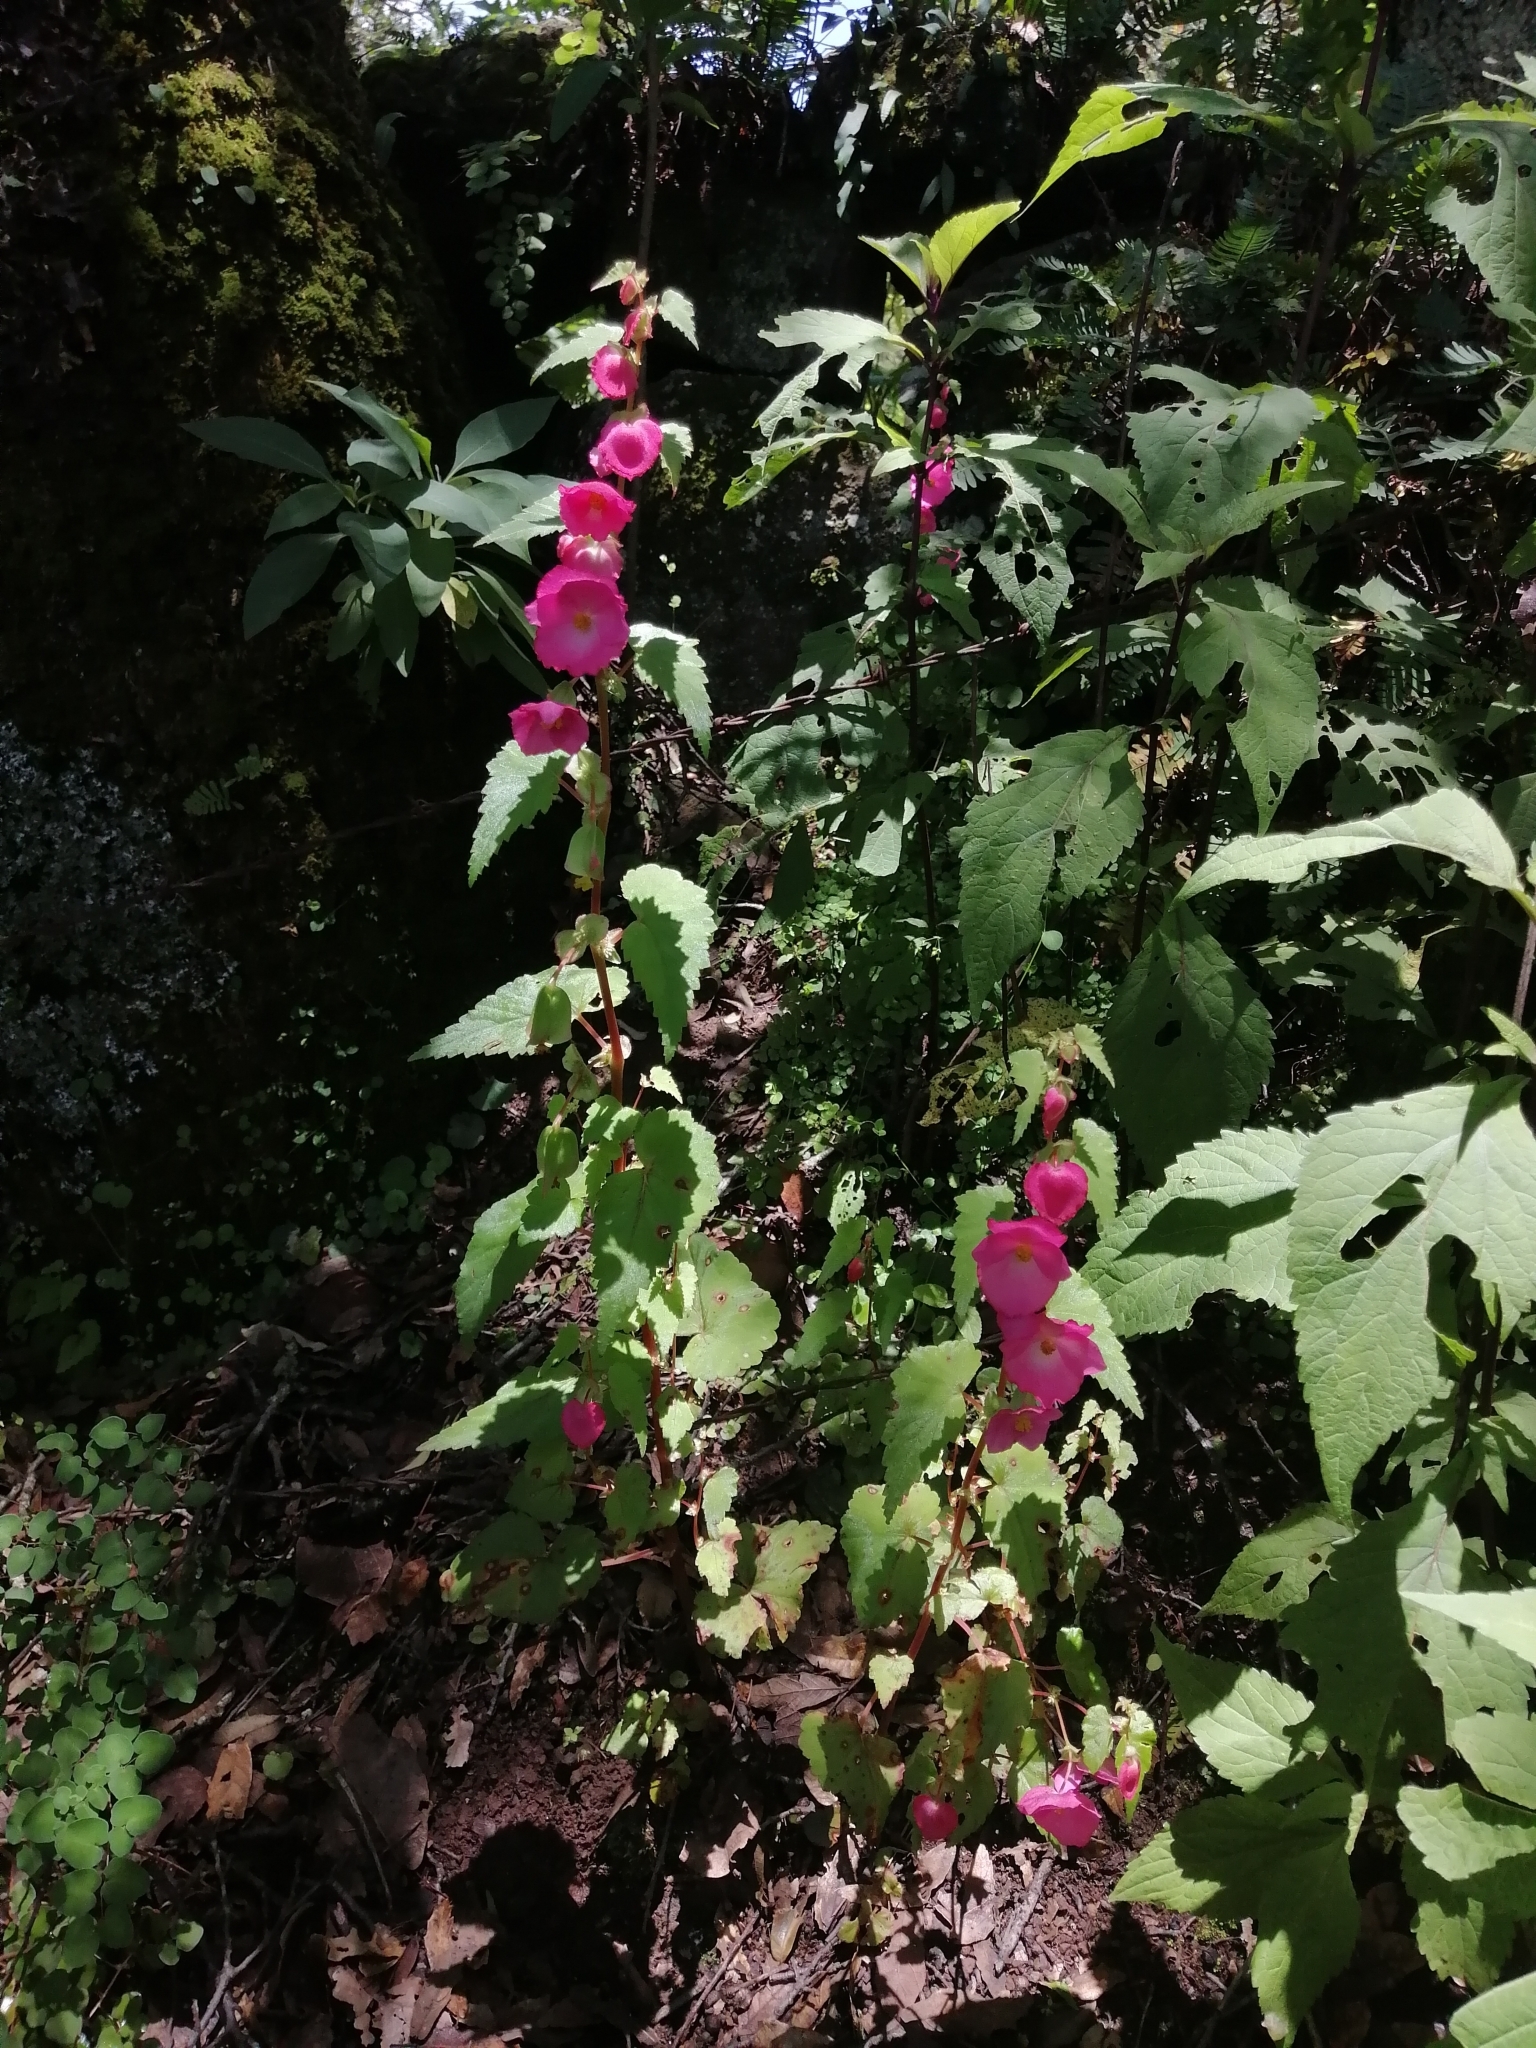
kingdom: Plantae
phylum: Tracheophyta
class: Magnoliopsida
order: Cucurbitales
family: Begoniaceae
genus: Begonia
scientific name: Begonia gracilis
